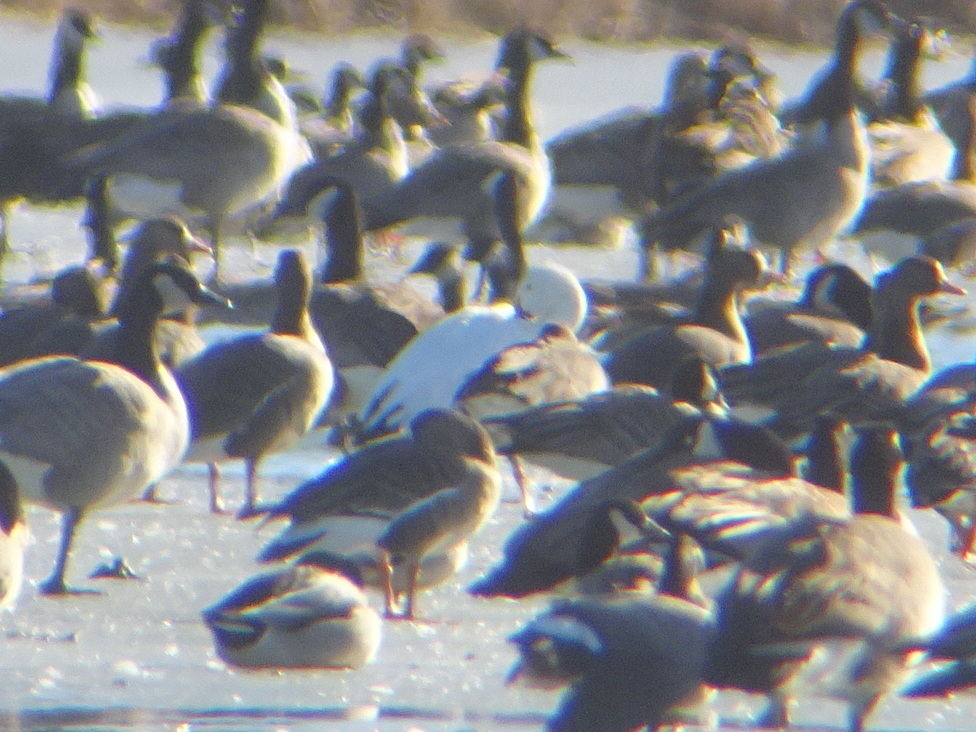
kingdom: Animalia
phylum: Chordata
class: Aves
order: Anseriformes
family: Anatidae
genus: Anser
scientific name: Anser caerulescens
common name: Snow goose
